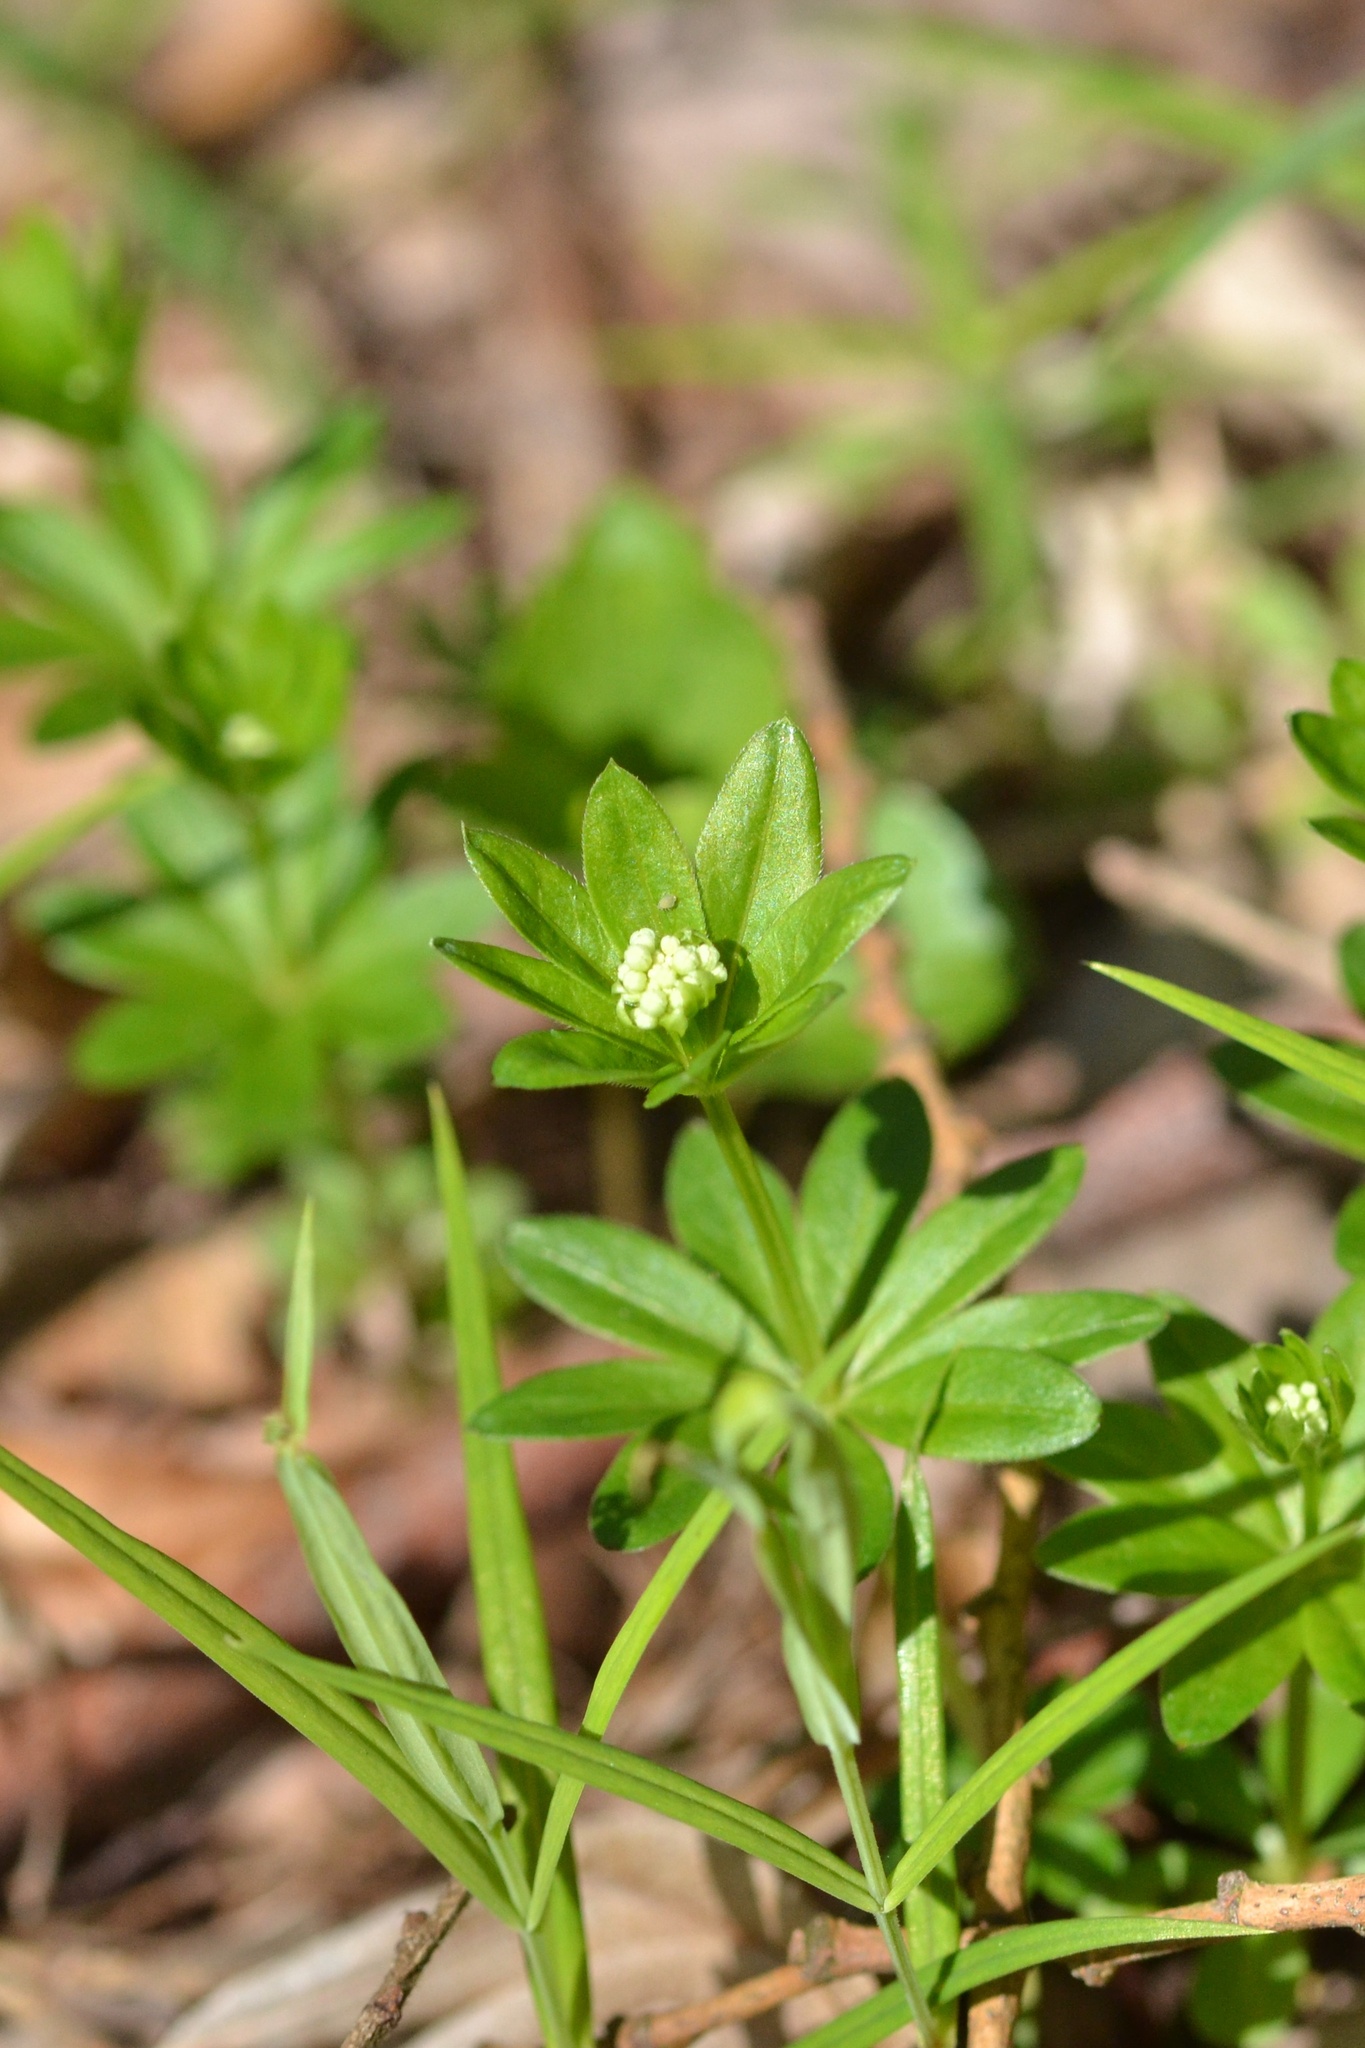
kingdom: Plantae
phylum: Tracheophyta
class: Magnoliopsida
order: Gentianales
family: Rubiaceae
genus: Galium
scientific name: Galium odoratum
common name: Sweet woodruff
